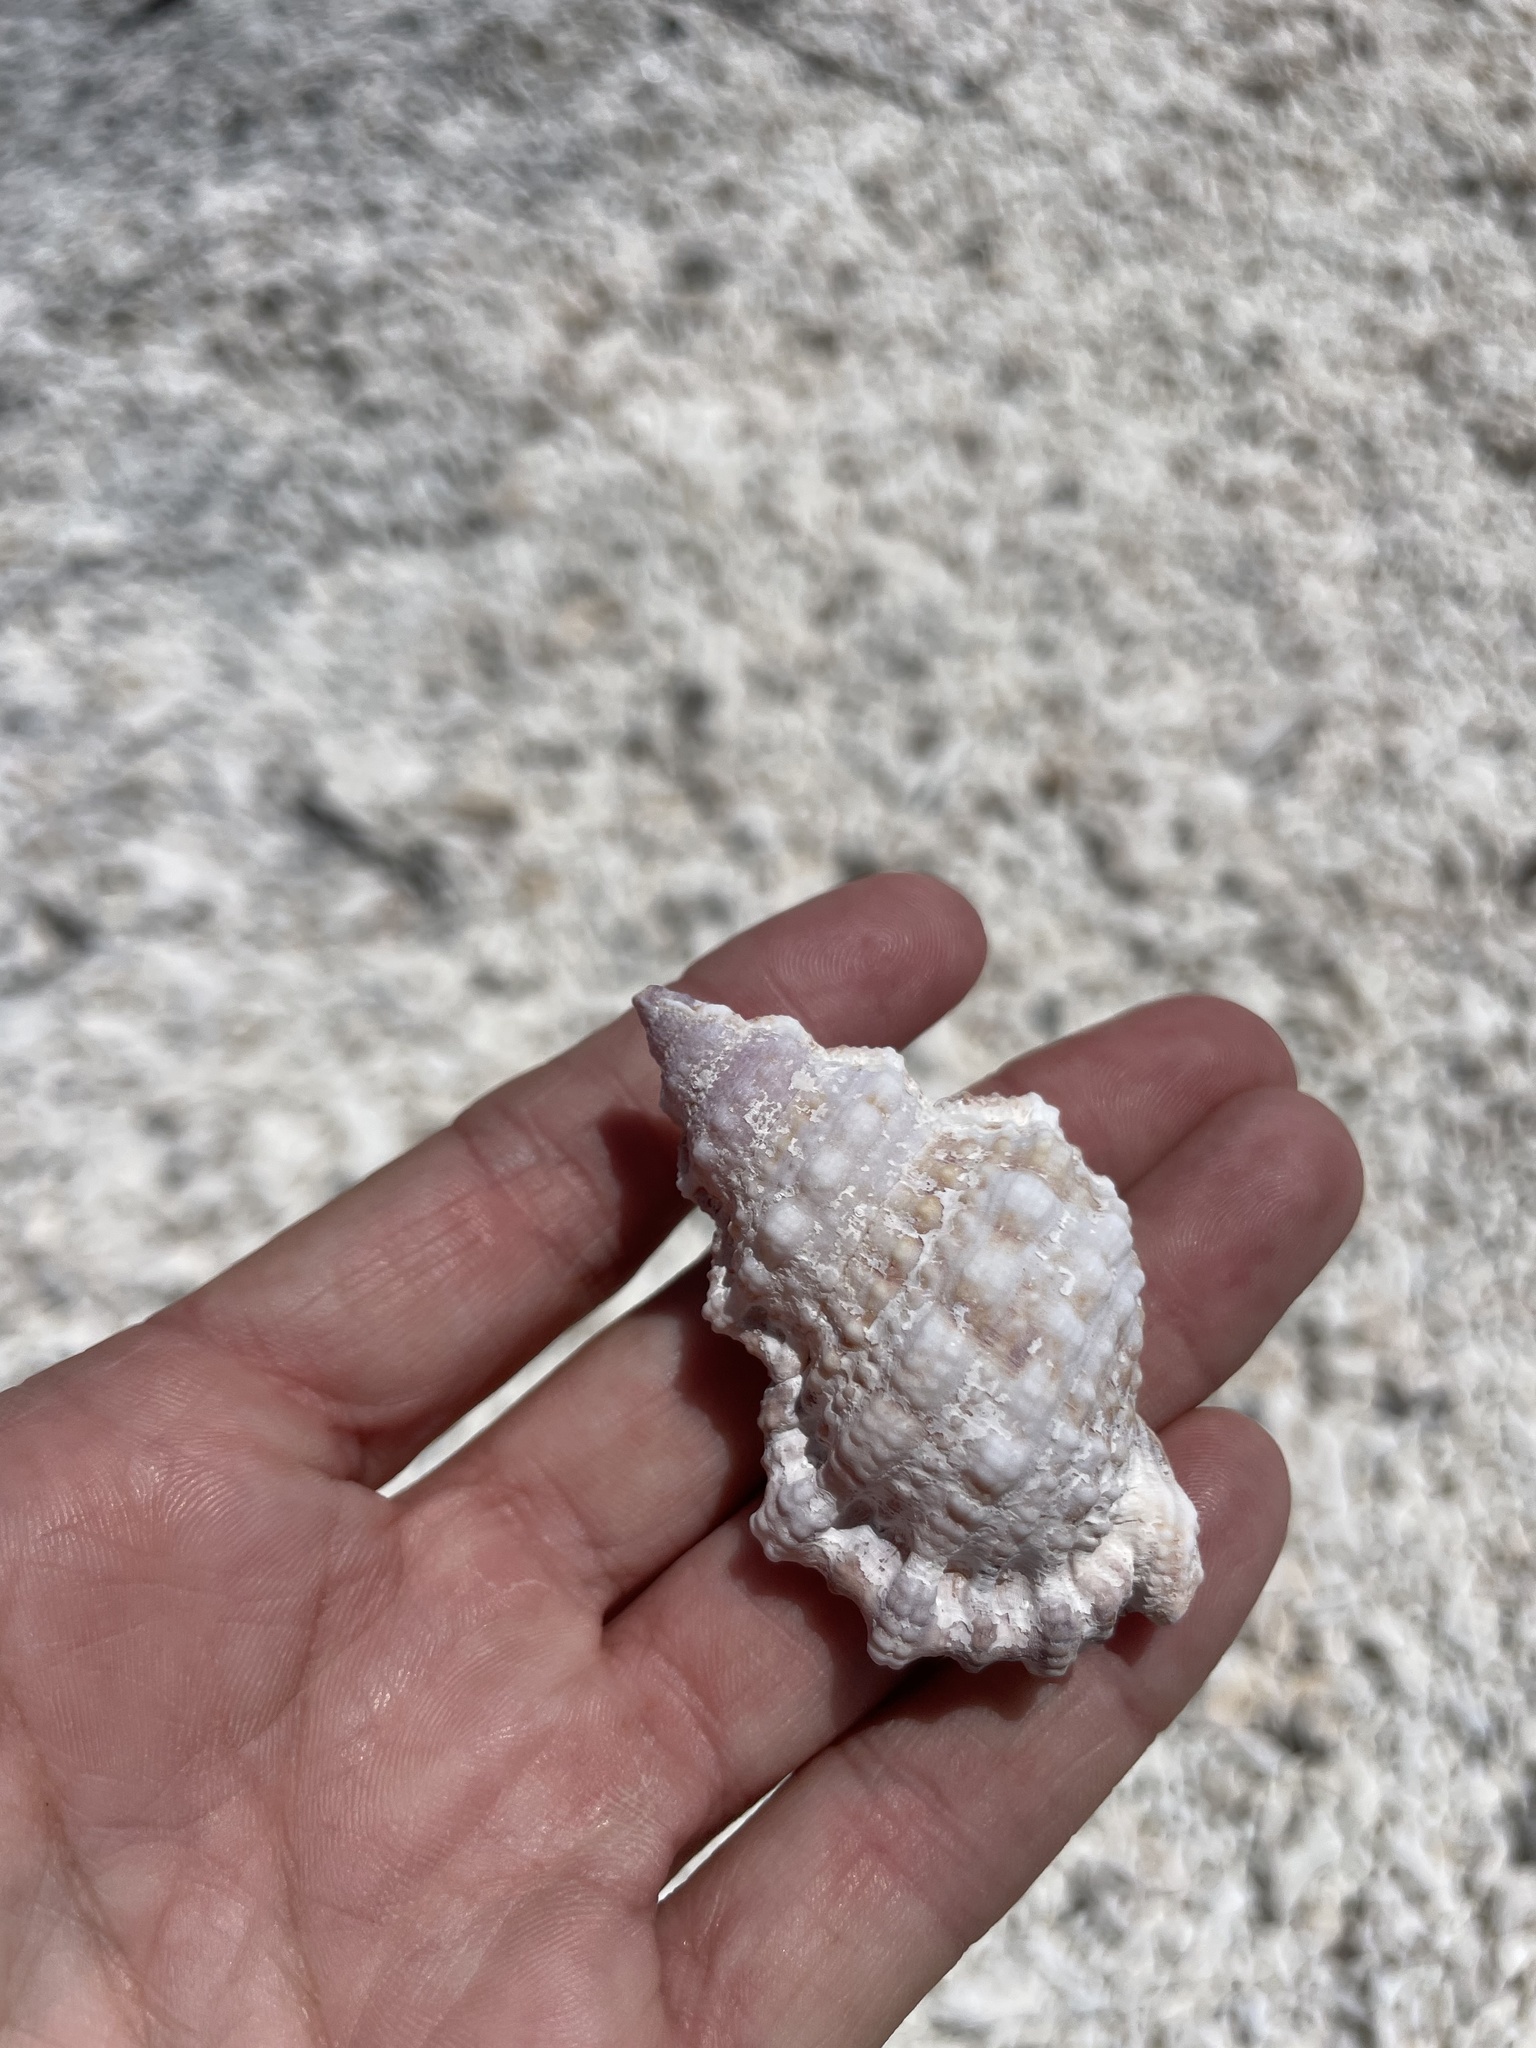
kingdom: Animalia
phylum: Mollusca
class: Gastropoda
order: Littorinimorpha
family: Bursidae
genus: Alanbeuella
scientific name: Alanbeuella corrugata
